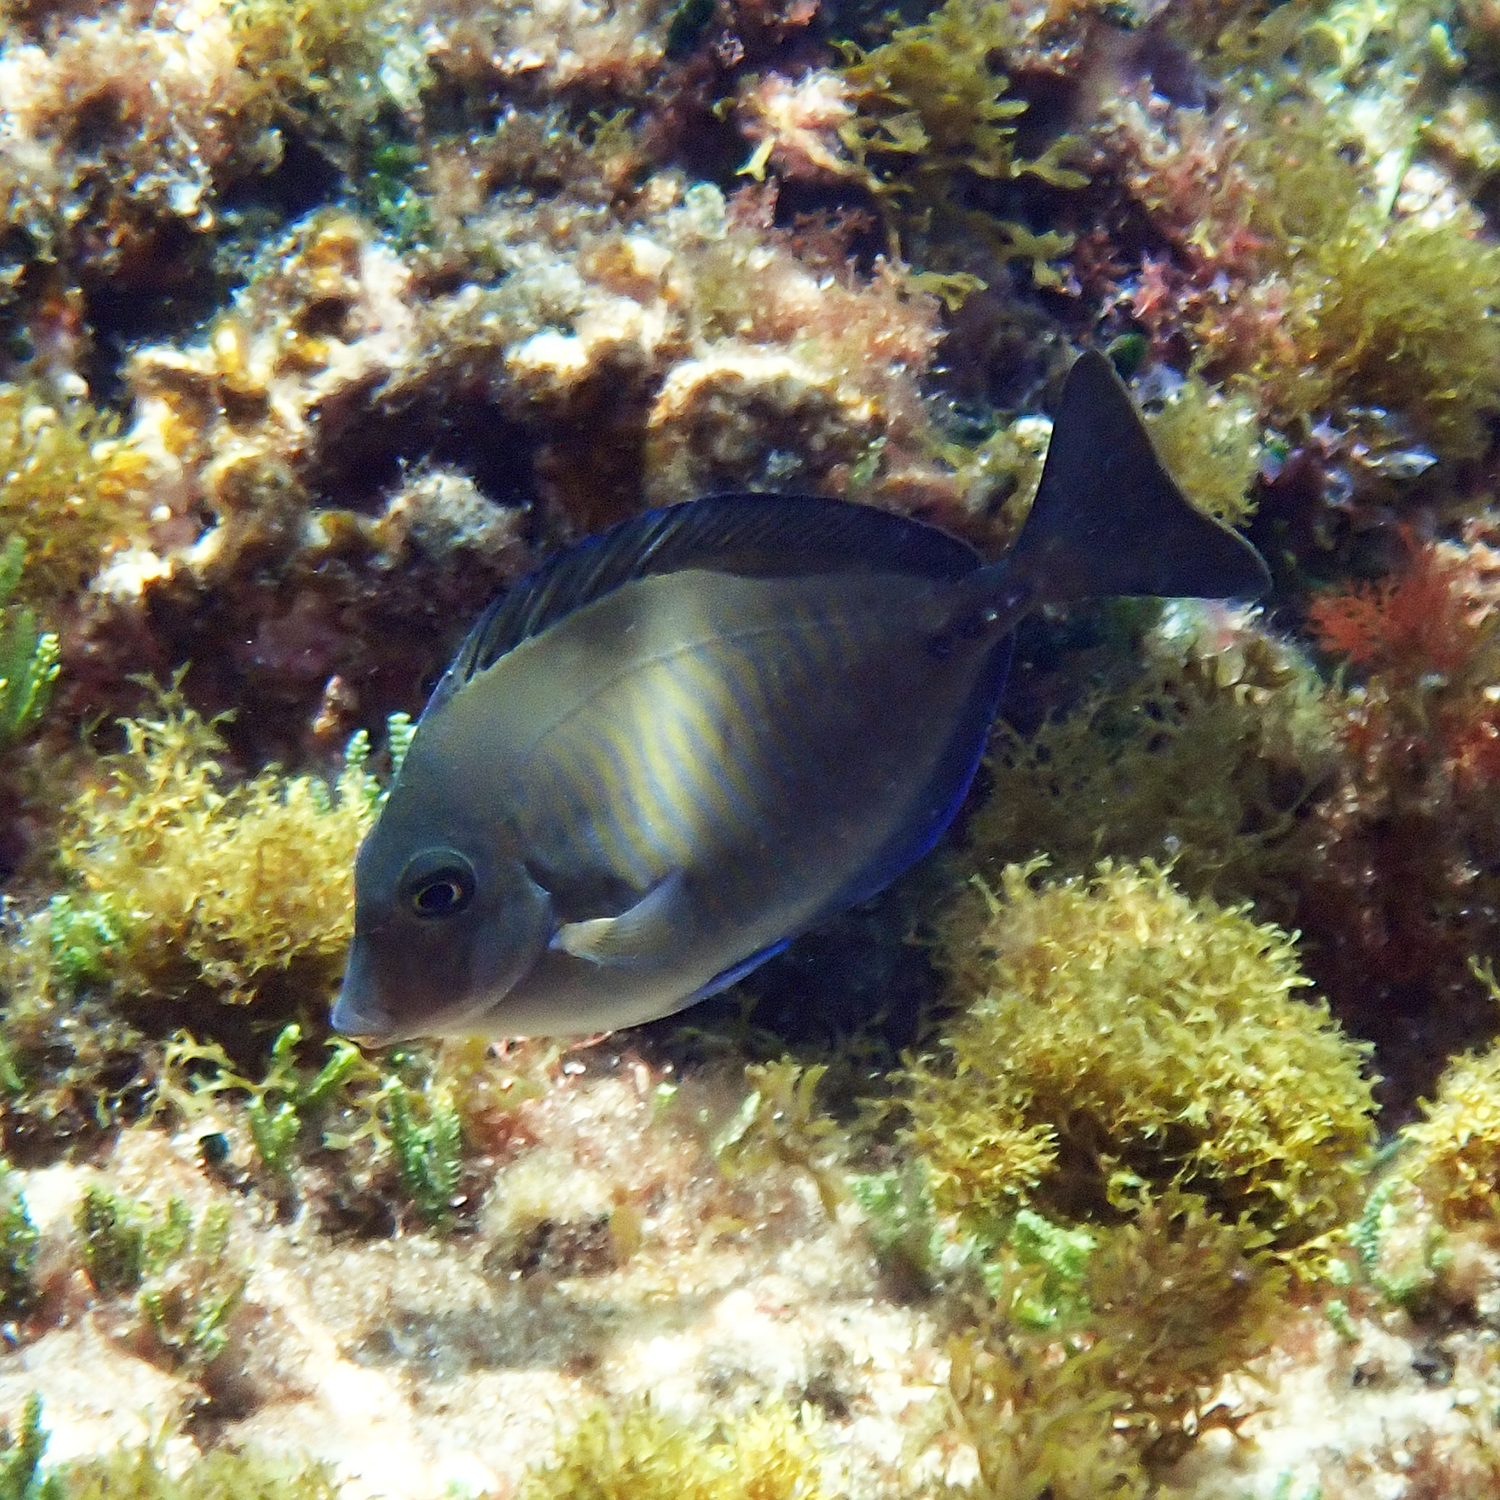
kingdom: Animalia
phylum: Chordata
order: Perciformes
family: Acanthuridae
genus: Prionurus
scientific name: Prionurus maculatus
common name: Yellowspotted sawtail
